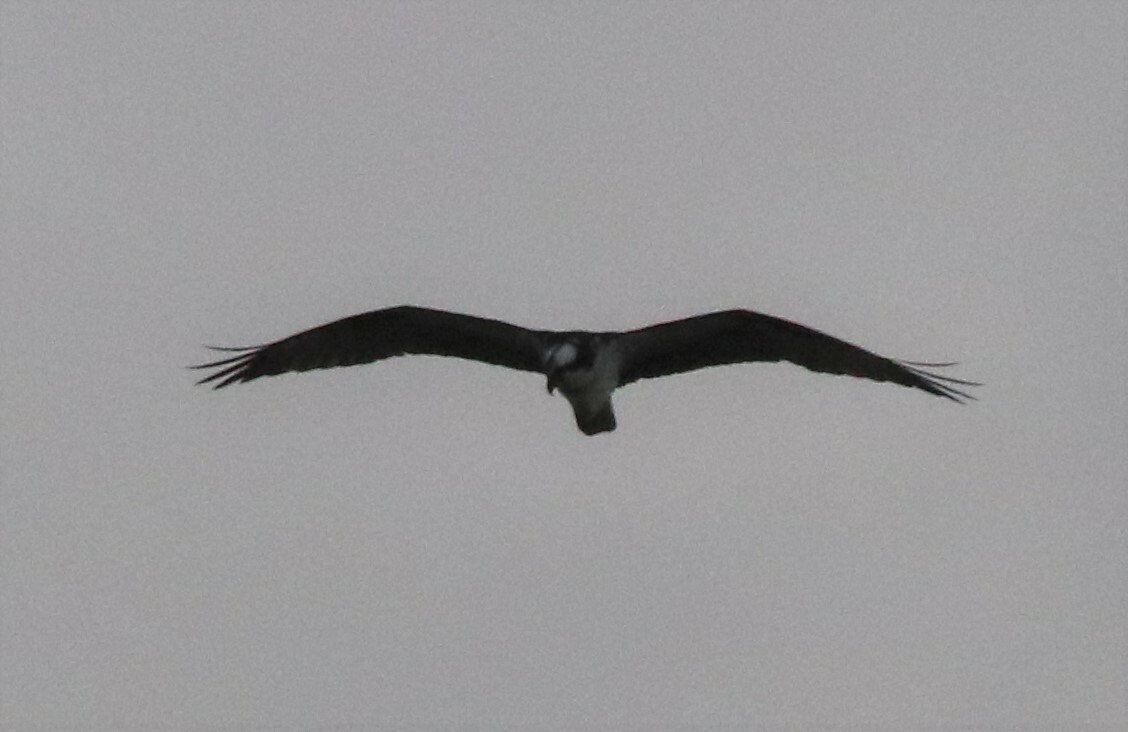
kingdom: Animalia
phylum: Chordata
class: Aves
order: Accipitriformes
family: Pandionidae
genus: Pandion
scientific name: Pandion haliaetus
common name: Osprey
